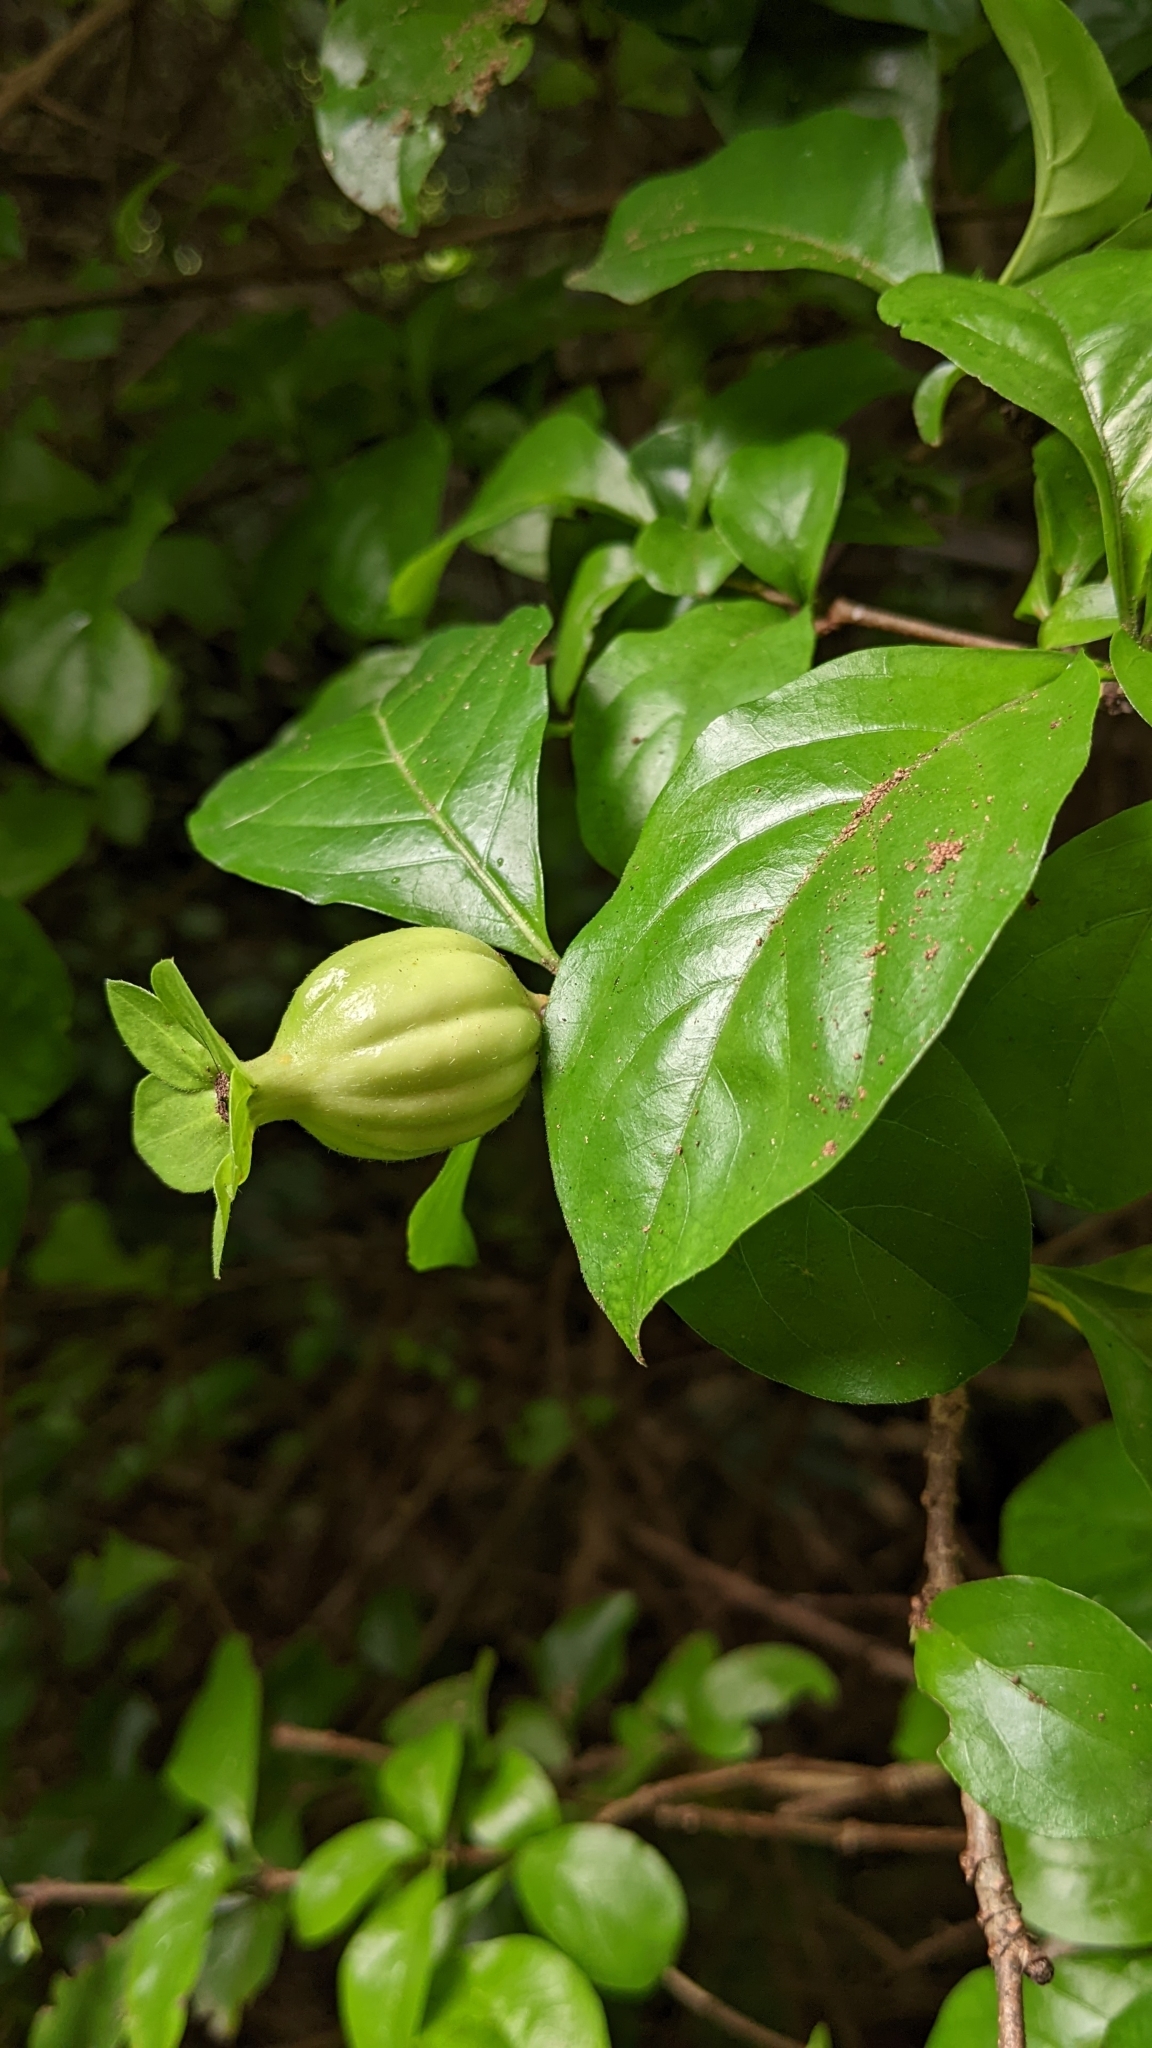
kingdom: Plantae
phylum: Tracheophyta
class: Magnoliopsida
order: Gentianales
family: Rubiaceae
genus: Randia
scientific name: Randia aculeata
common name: Inkberry
